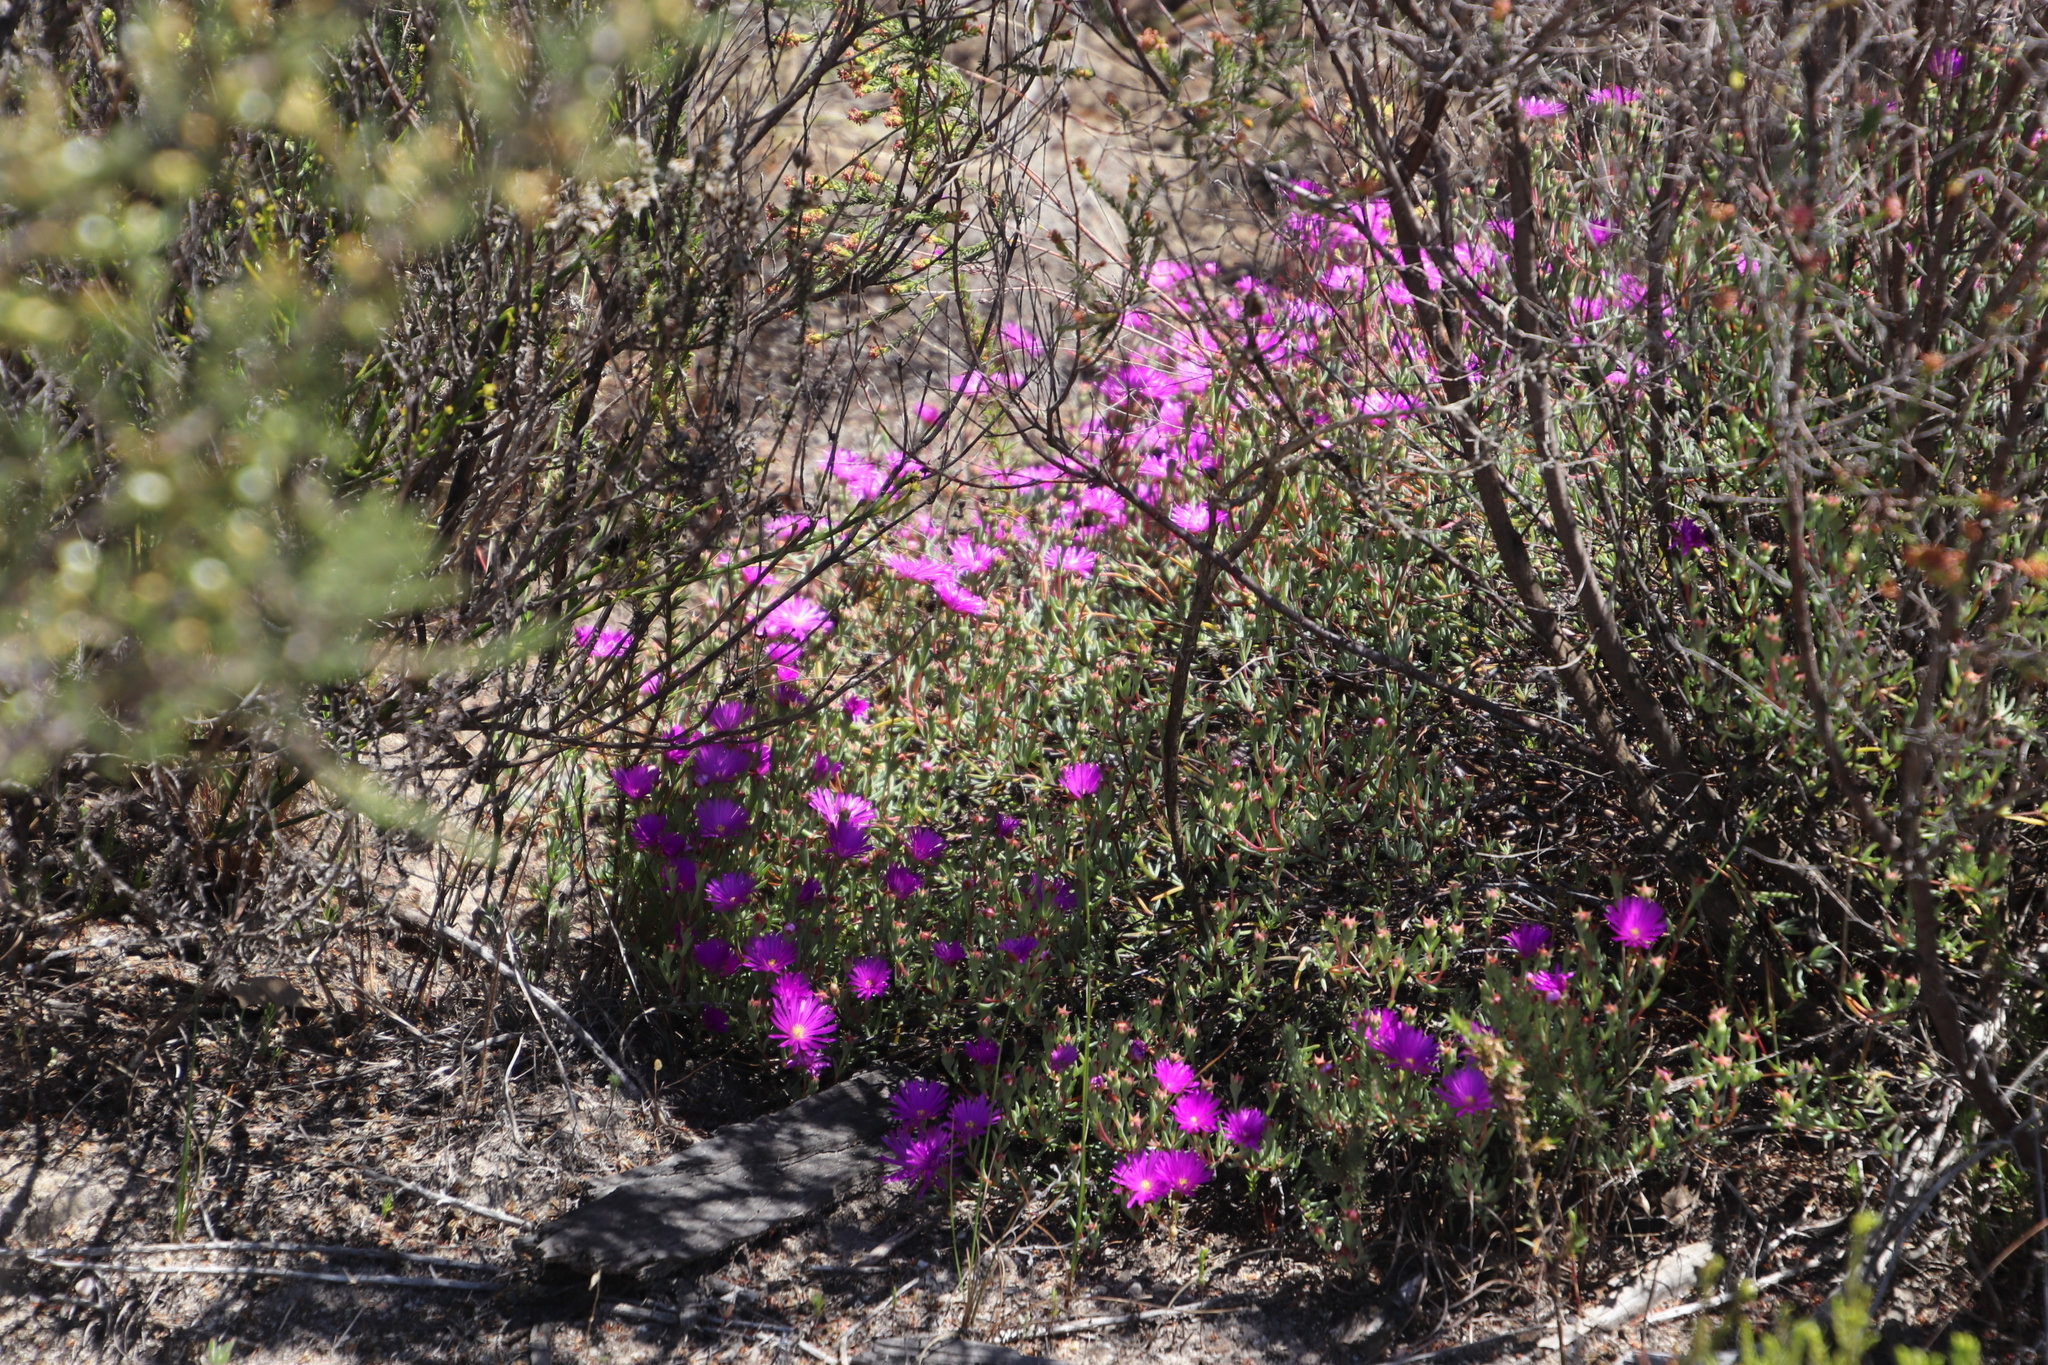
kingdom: Plantae
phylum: Tracheophyta
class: Magnoliopsida
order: Caryophyllales
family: Aizoaceae
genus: Lampranthus
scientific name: Lampranthus emarginatus
